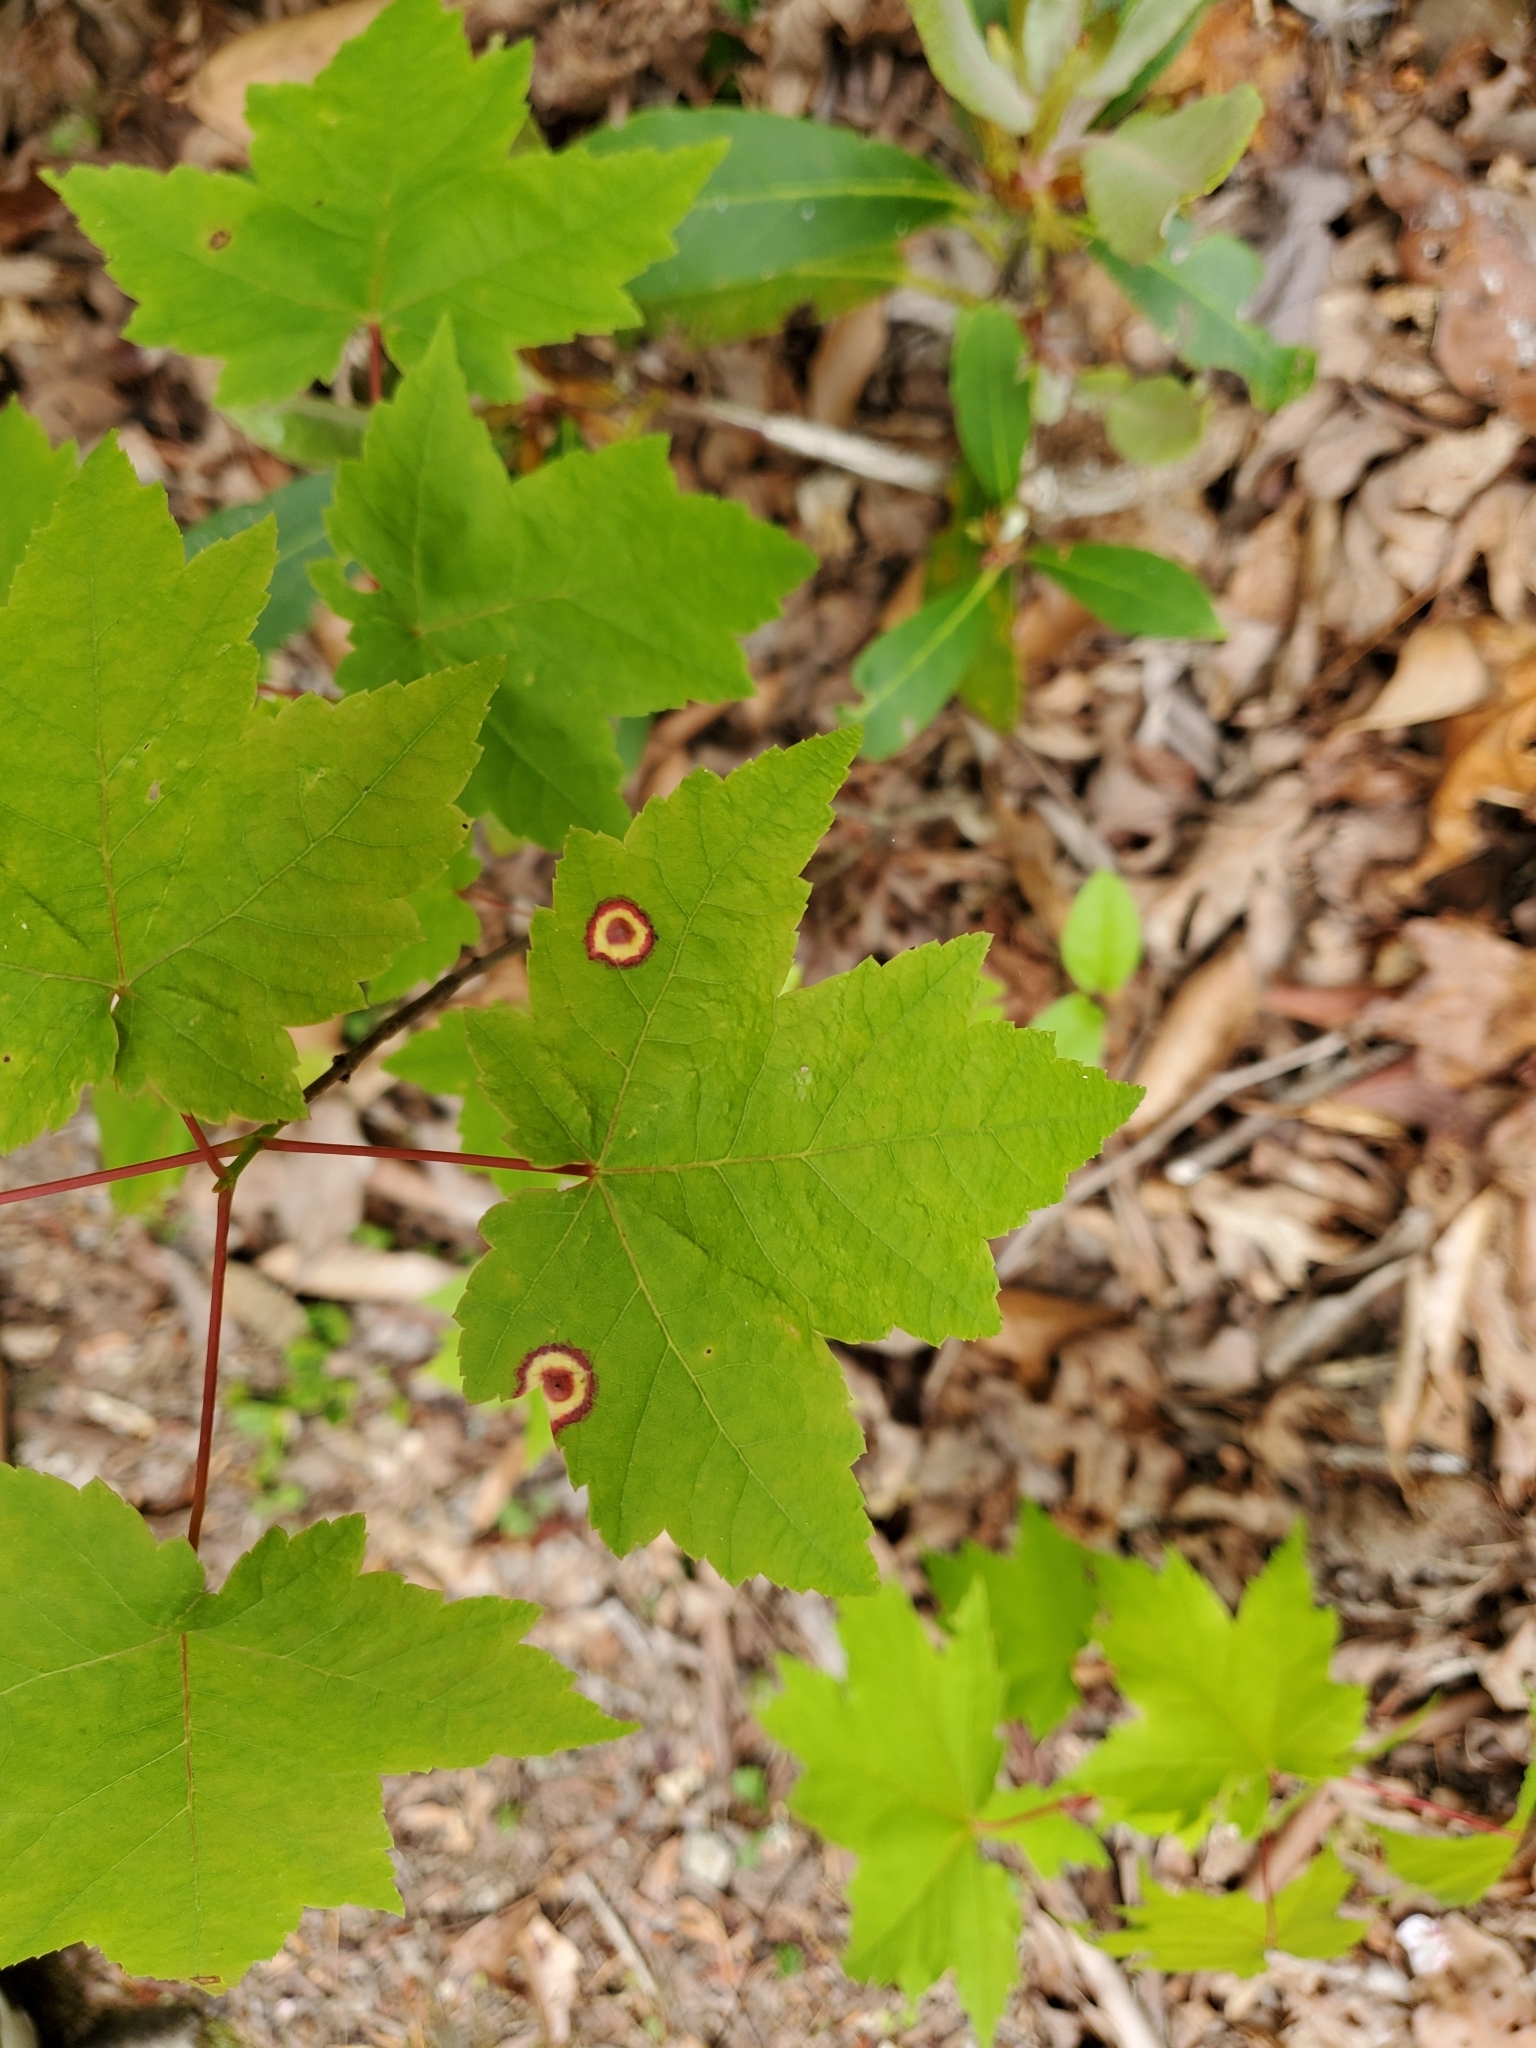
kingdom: Animalia
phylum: Arthropoda
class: Insecta
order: Diptera
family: Cecidomyiidae
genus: Acericecis
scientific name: Acericecis ocellaris
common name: Ocellate gall midge
